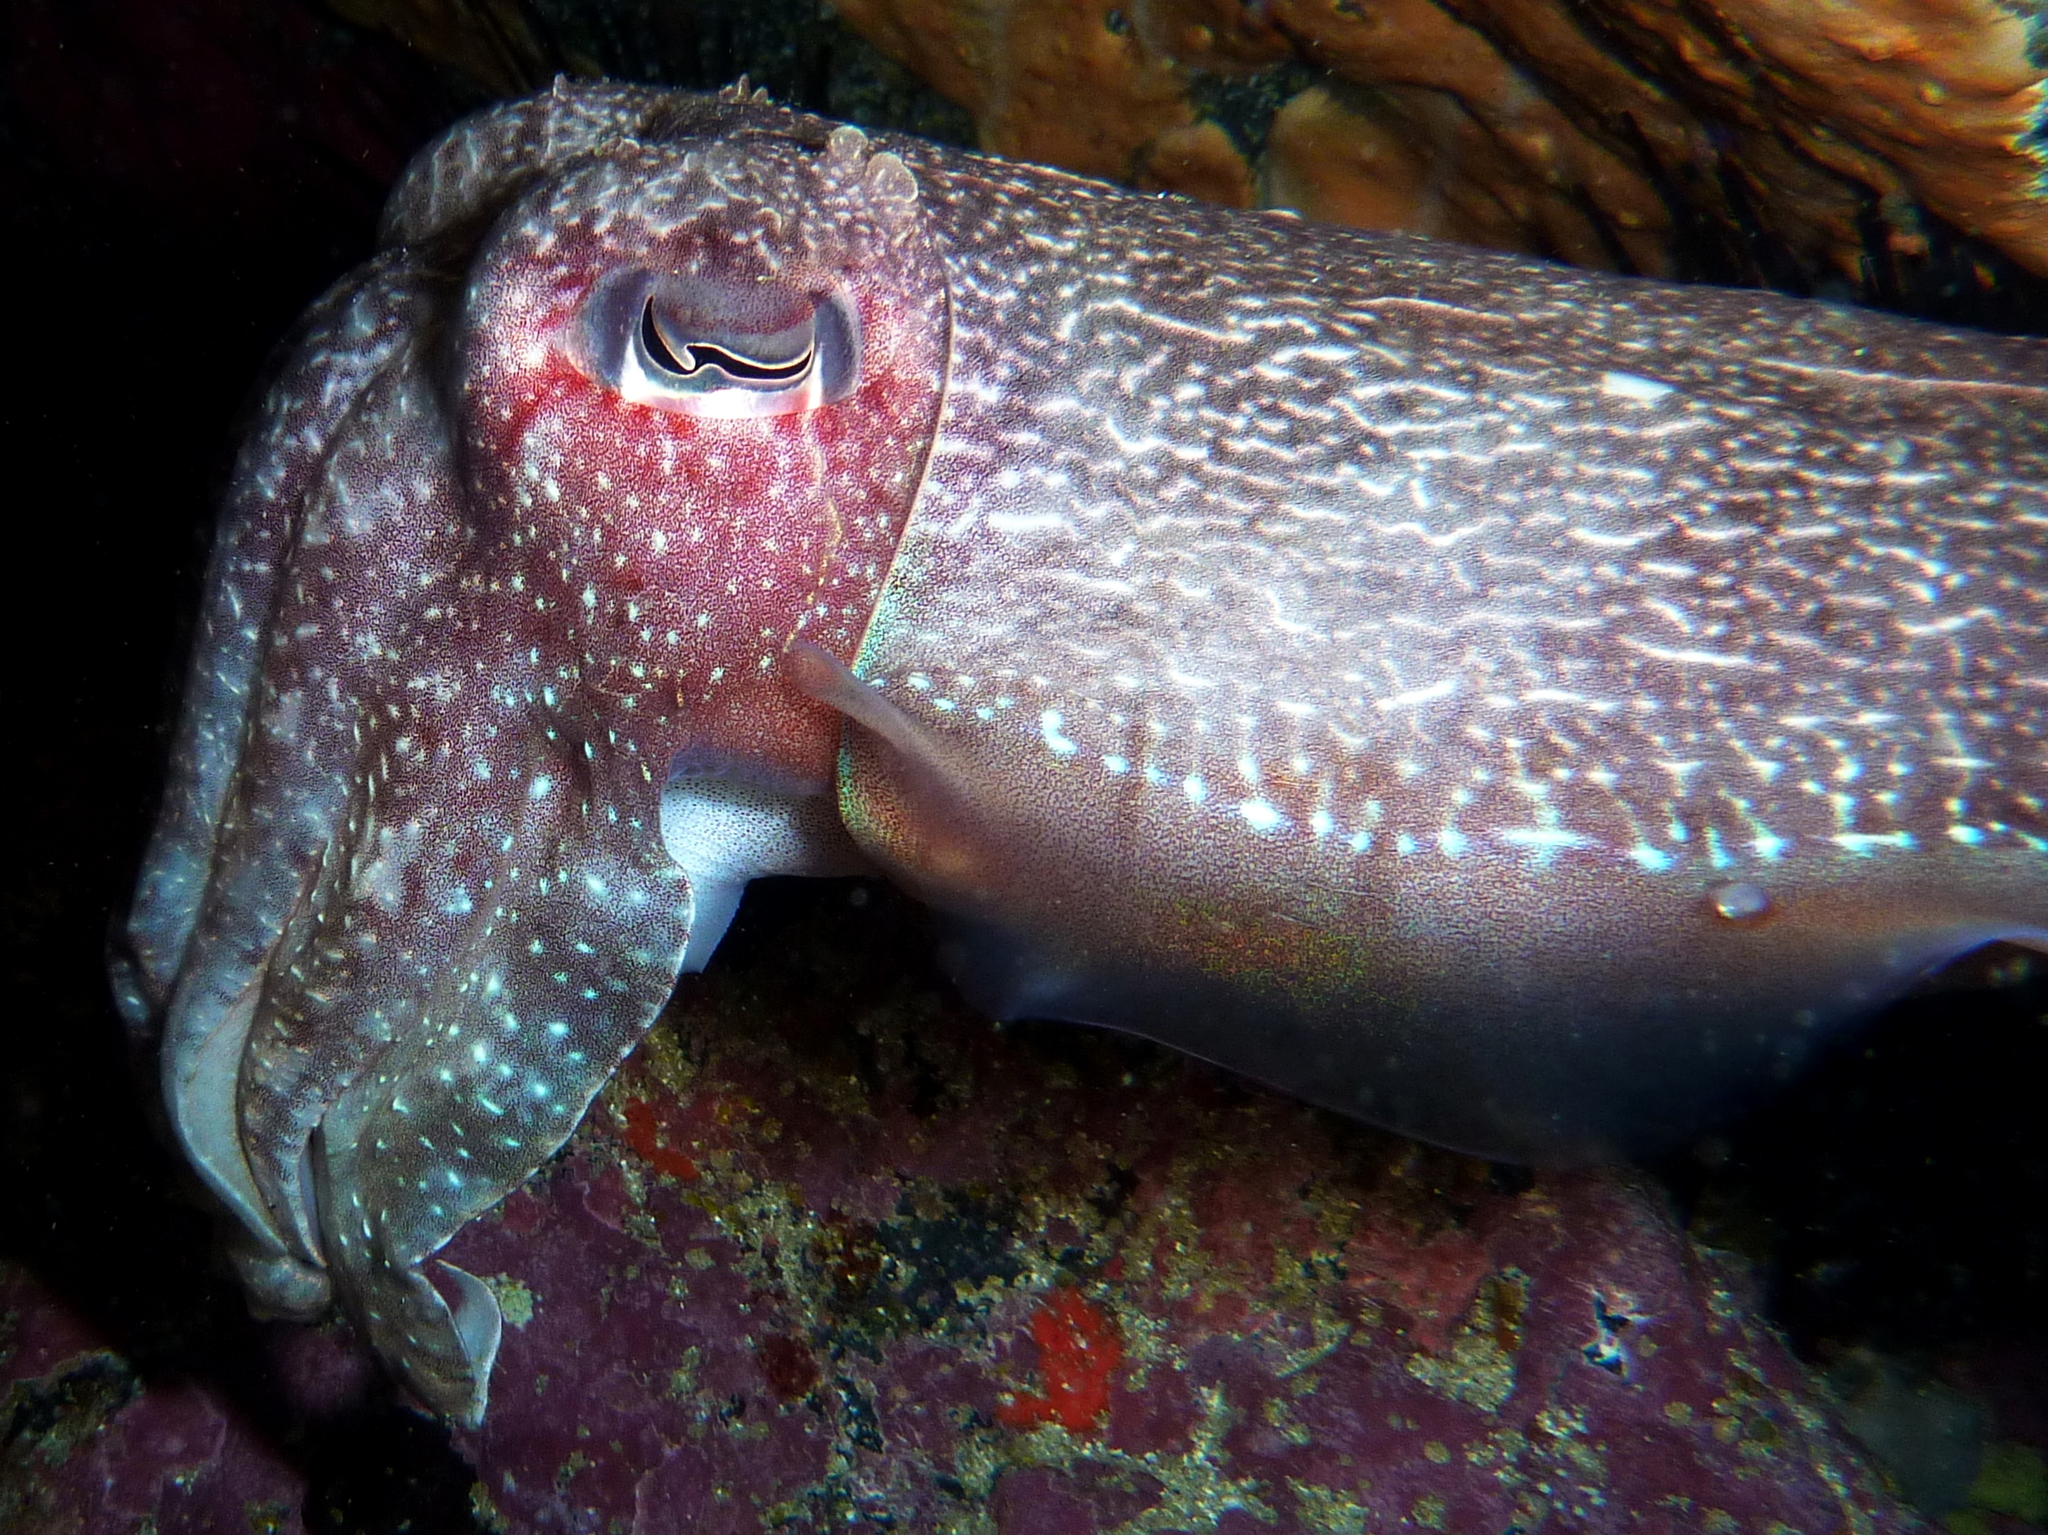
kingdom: Animalia
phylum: Mollusca
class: Cephalopoda
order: Sepiida
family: Sepiidae
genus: Ascarosepion
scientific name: Ascarosepion apama
